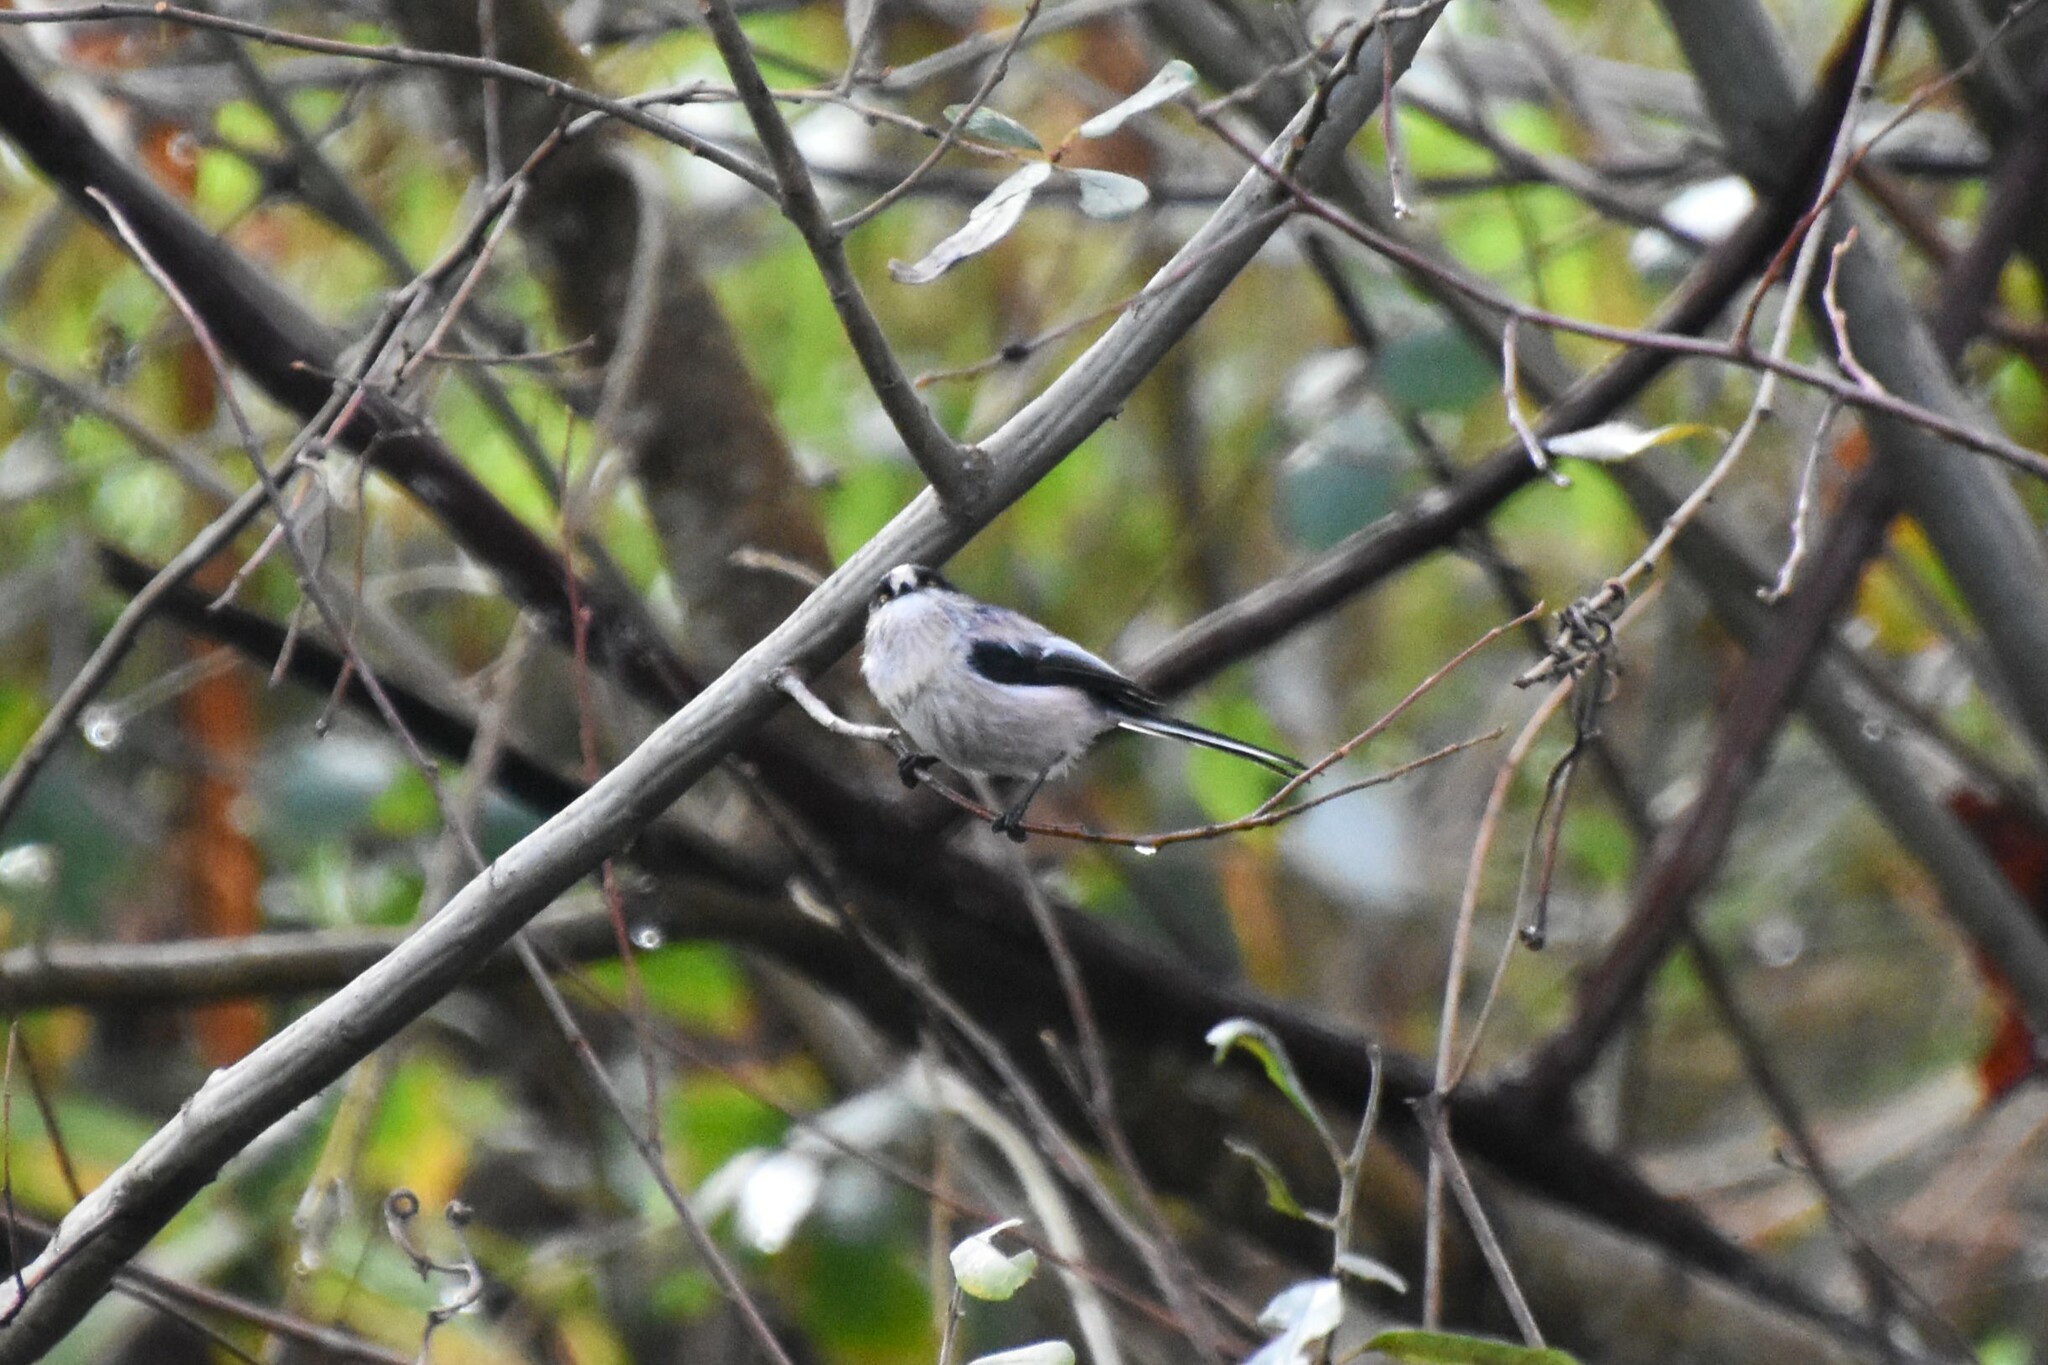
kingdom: Animalia
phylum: Chordata
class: Aves
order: Passeriformes
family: Aegithalidae
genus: Aegithalos
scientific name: Aegithalos caudatus
